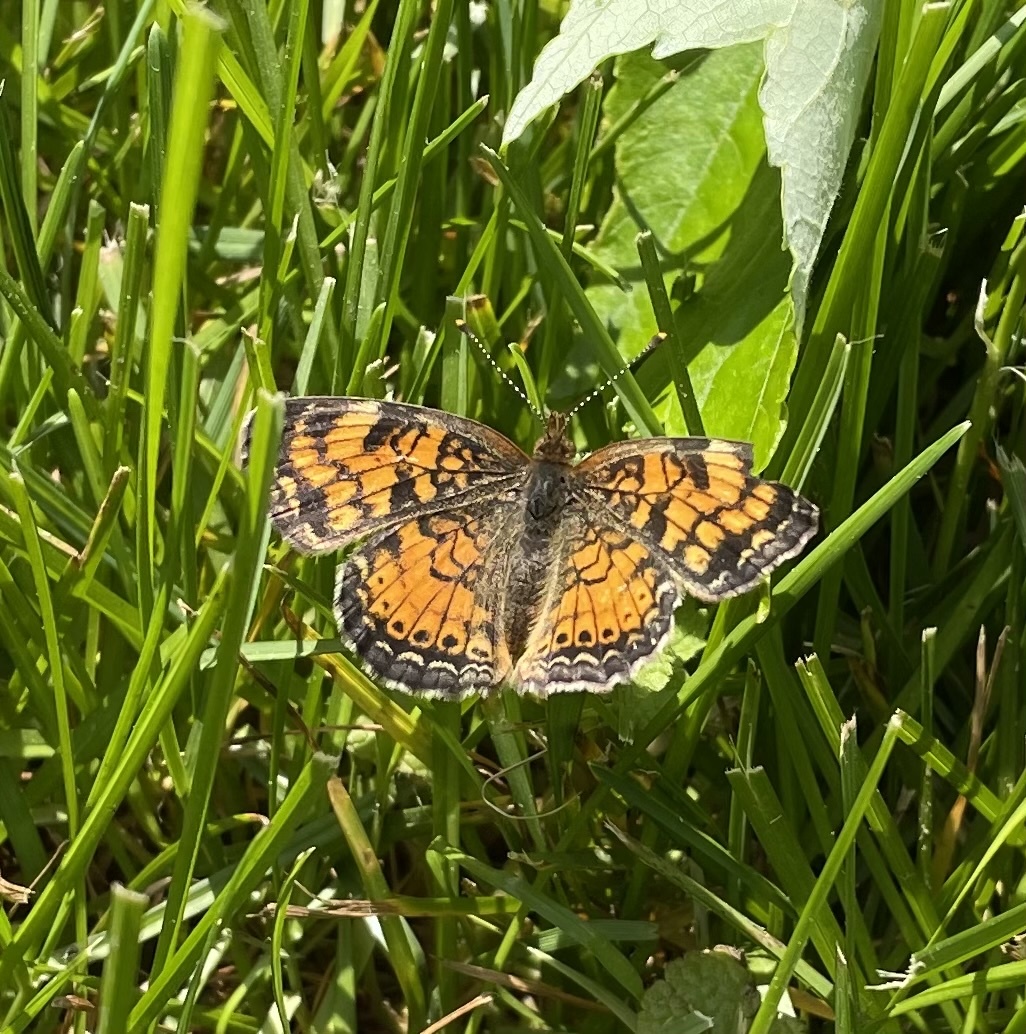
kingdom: Animalia
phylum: Arthropoda
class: Insecta
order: Lepidoptera
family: Nymphalidae
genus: Phyciodes
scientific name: Phyciodes tharos
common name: Pearl crescent
